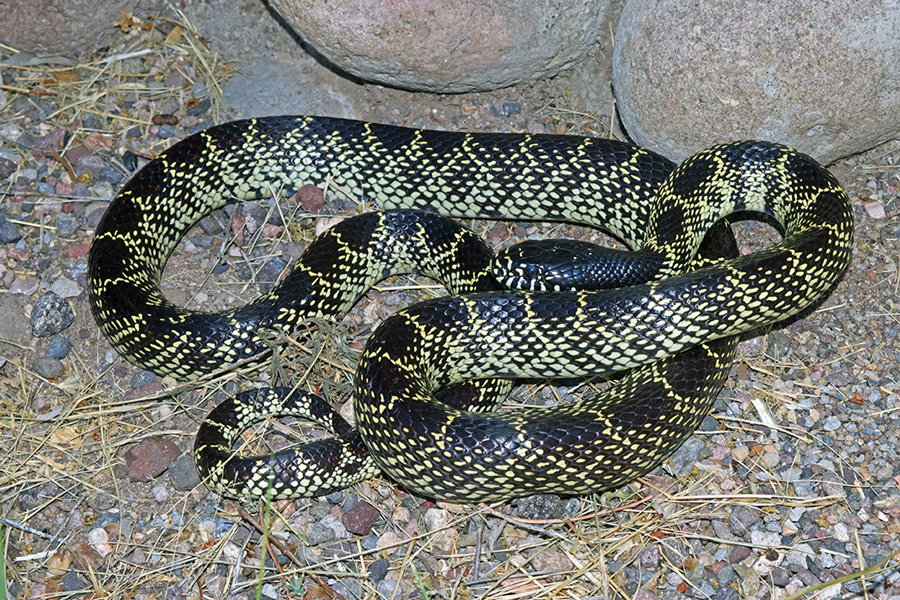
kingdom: Animalia
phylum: Chordata
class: Squamata
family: Colubridae
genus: Lampropeltis
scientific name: Lampropeltis splendida
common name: Desert kingsnake
